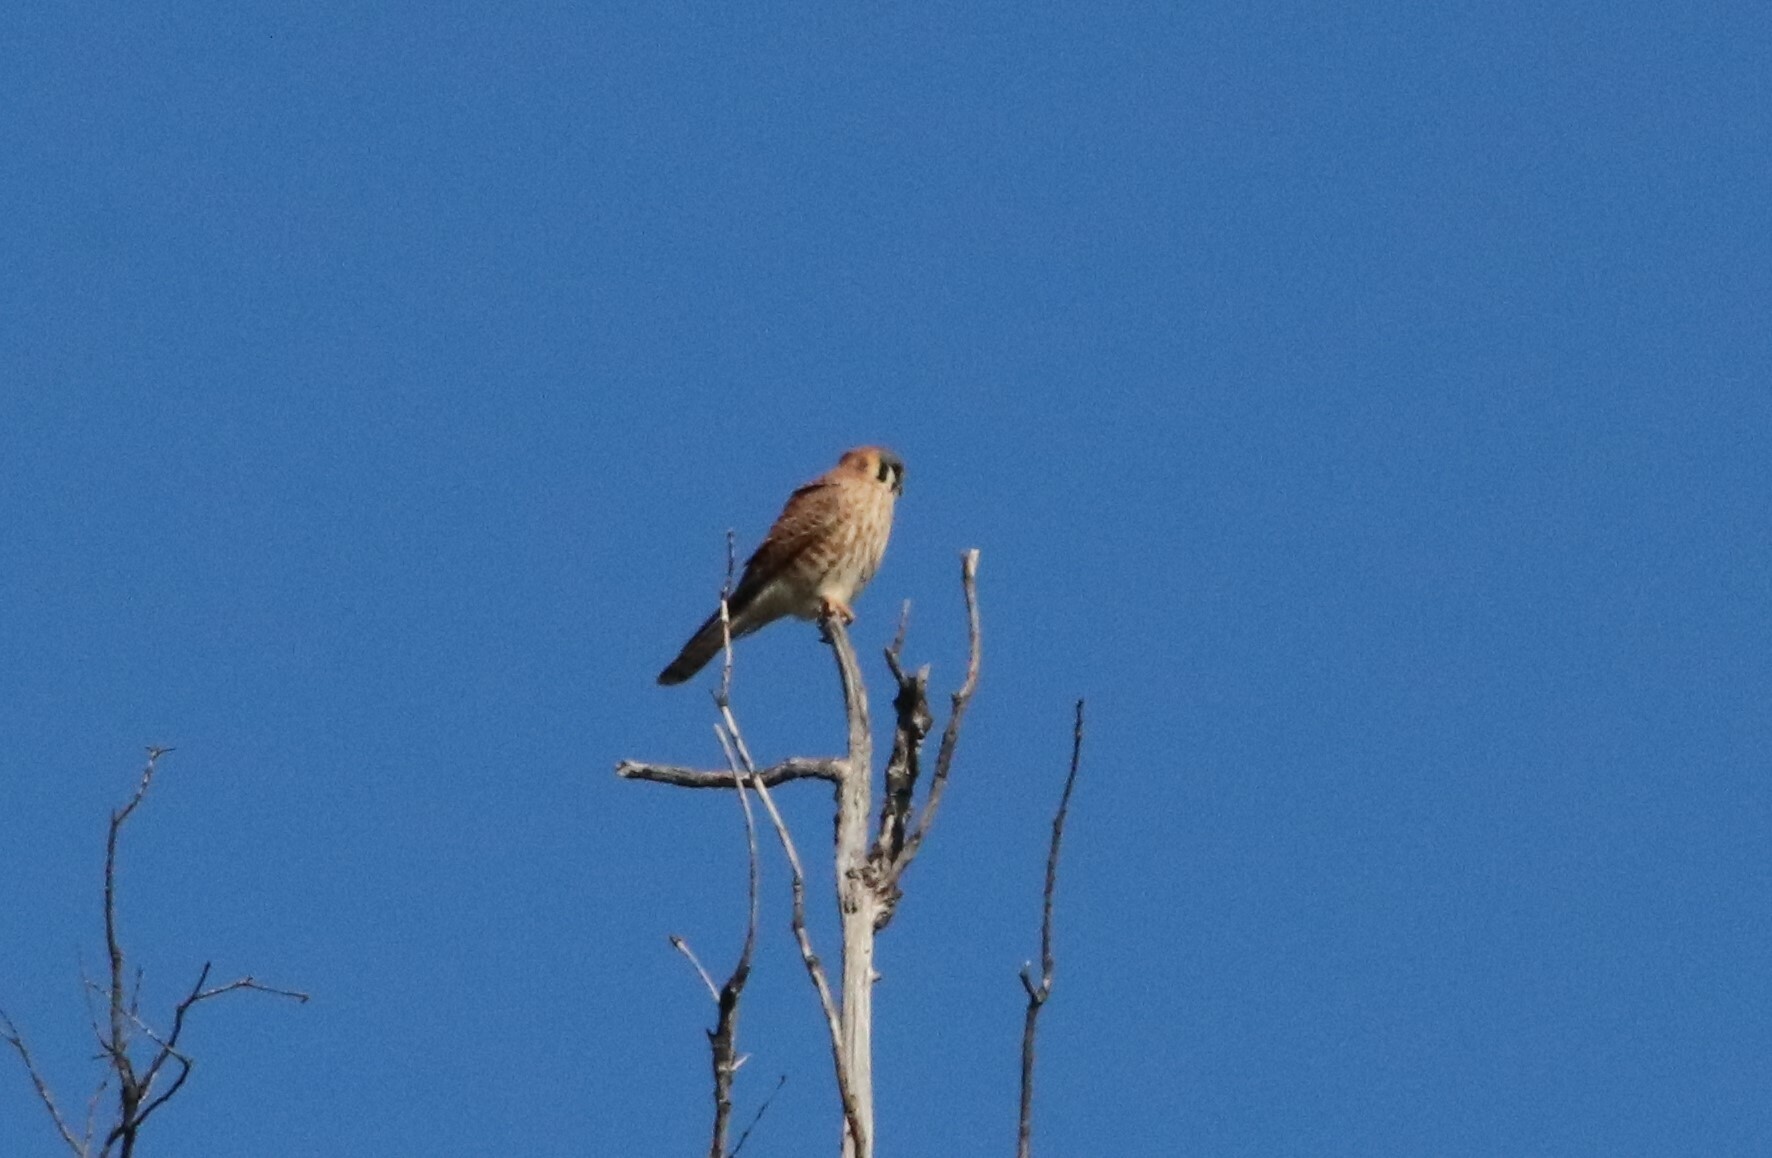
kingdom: Animalia
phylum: Chordata
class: Aves
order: Falconiformes
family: Falconidae
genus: Falco
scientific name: Falco sparverius
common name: American kestrel
